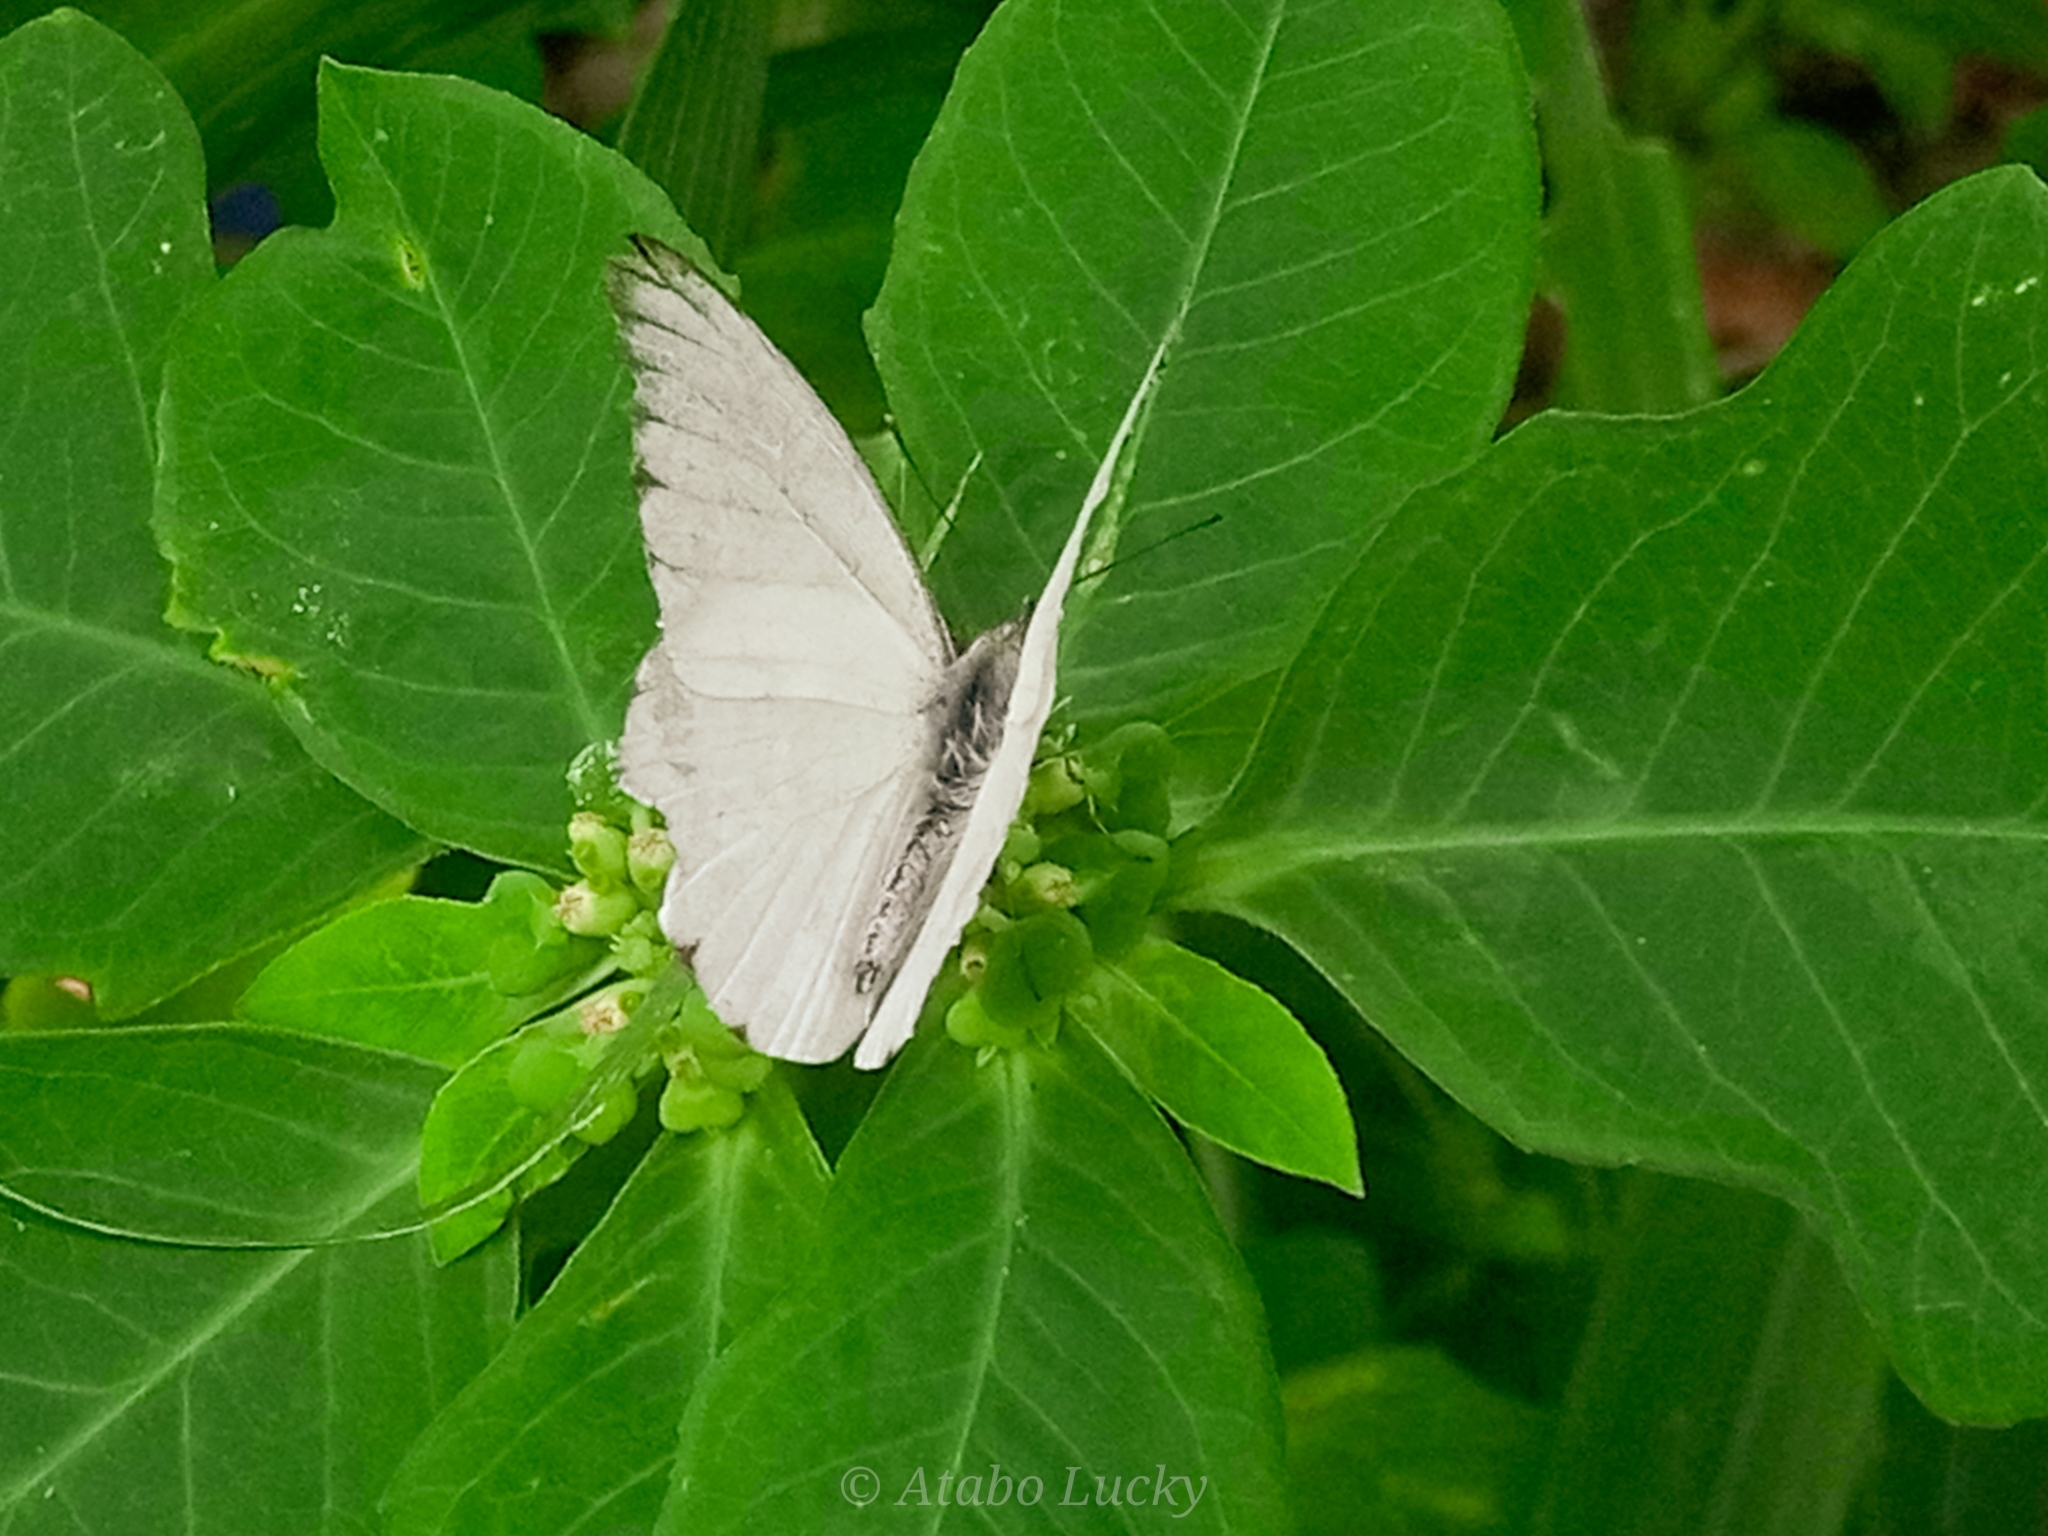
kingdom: Animalia
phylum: Arthropoda
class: Insecta
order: Lepidoptera
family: Pieridae
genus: Glutophrissa
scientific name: Glutophrissa epaphia
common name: African albatross
